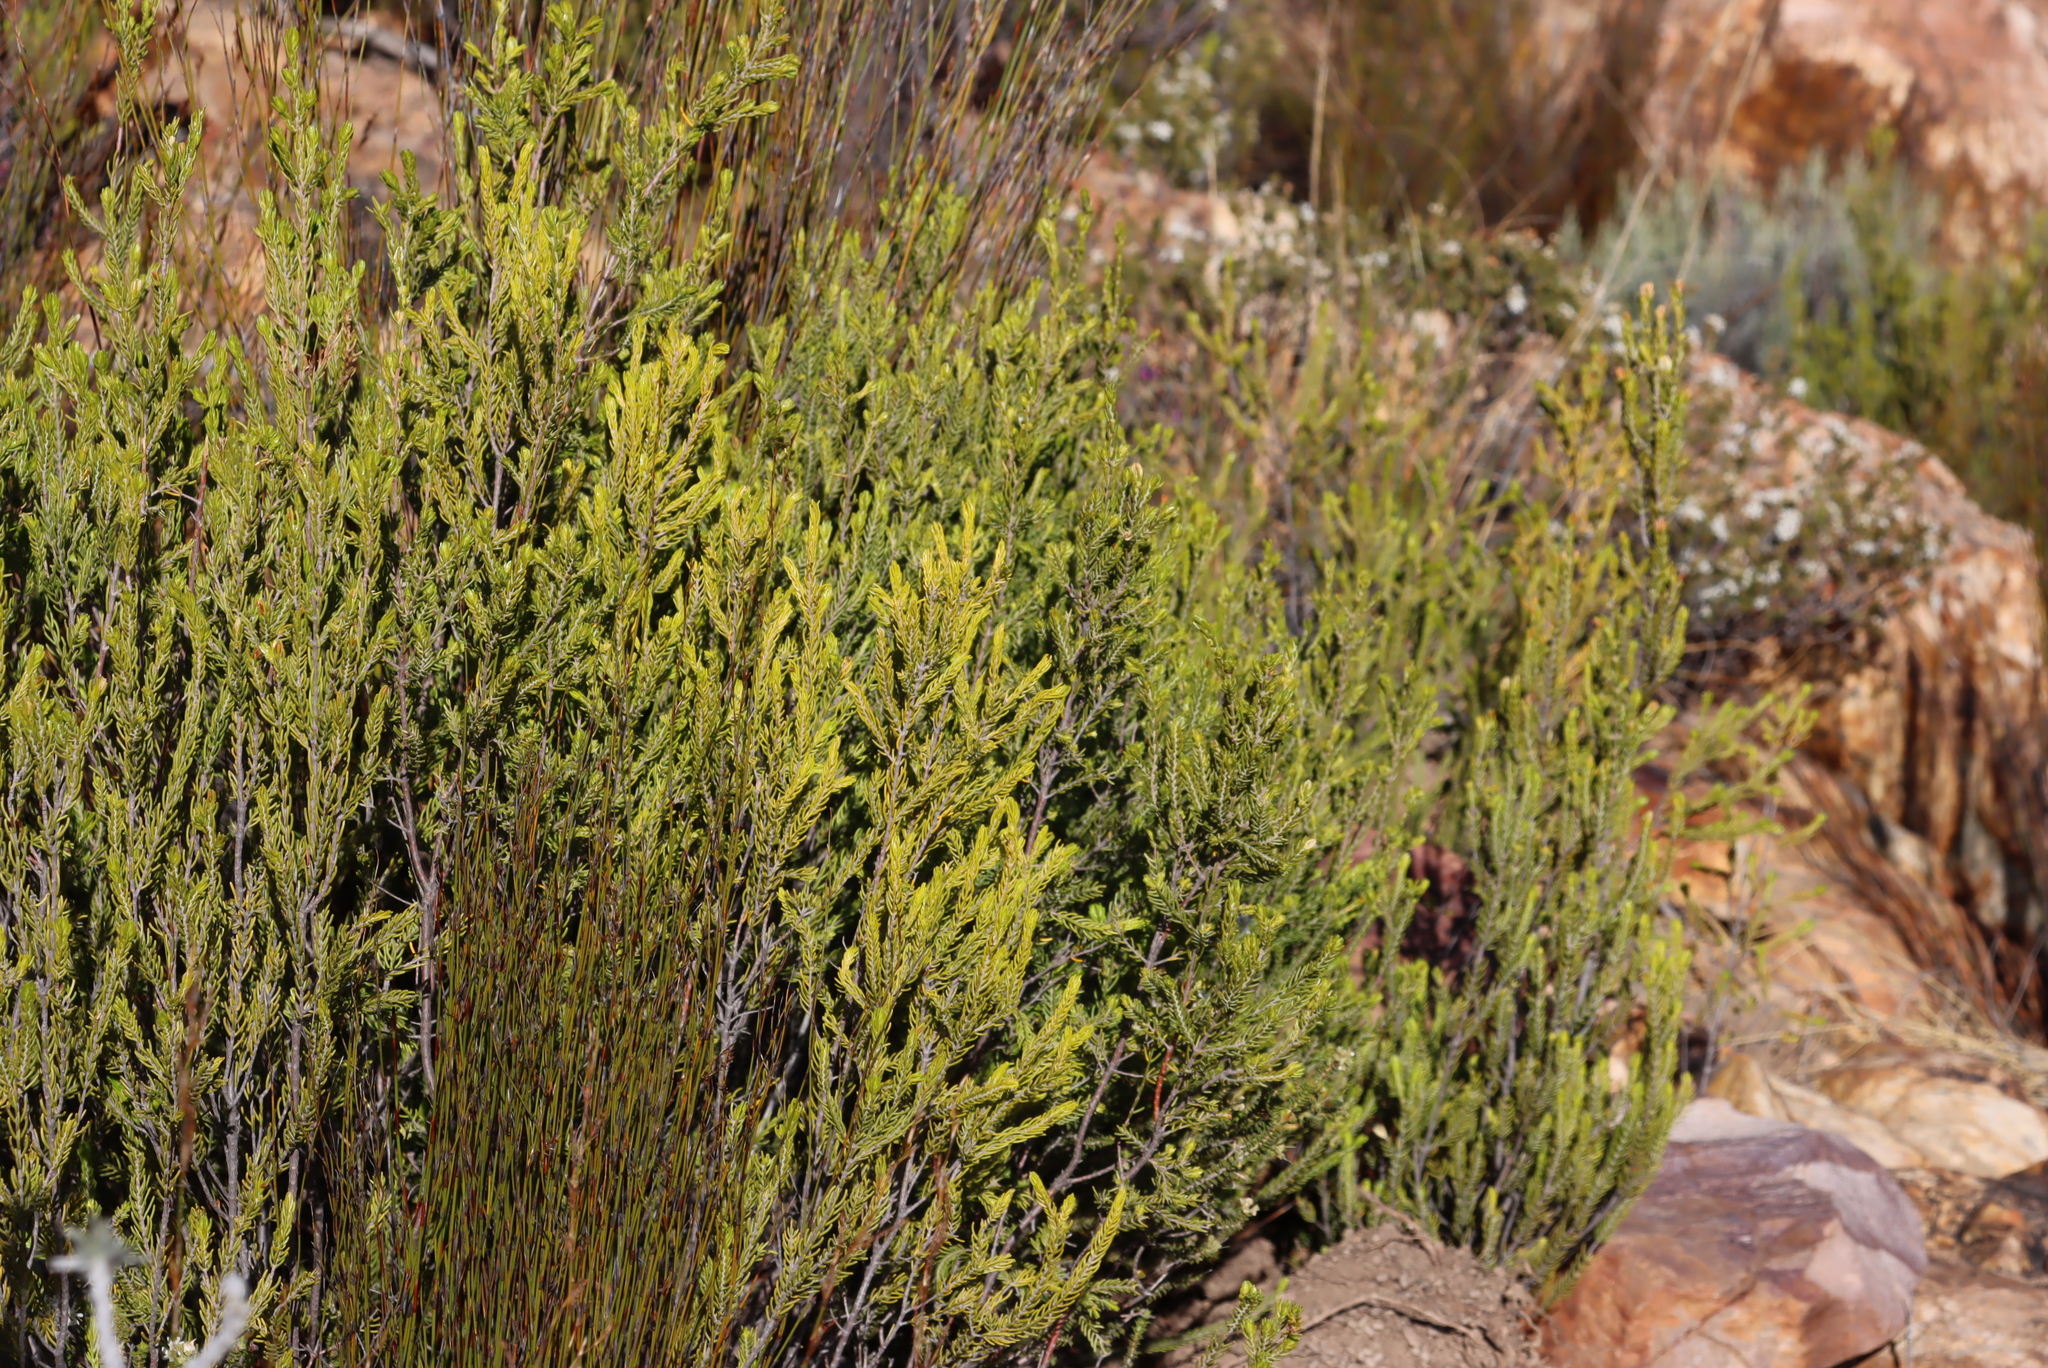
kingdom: Plantae
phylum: Tracheophyta
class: Magnoliopsida
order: Malvales
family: Thymelaeaceae
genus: Passerina
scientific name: Passerina obtusifolia
